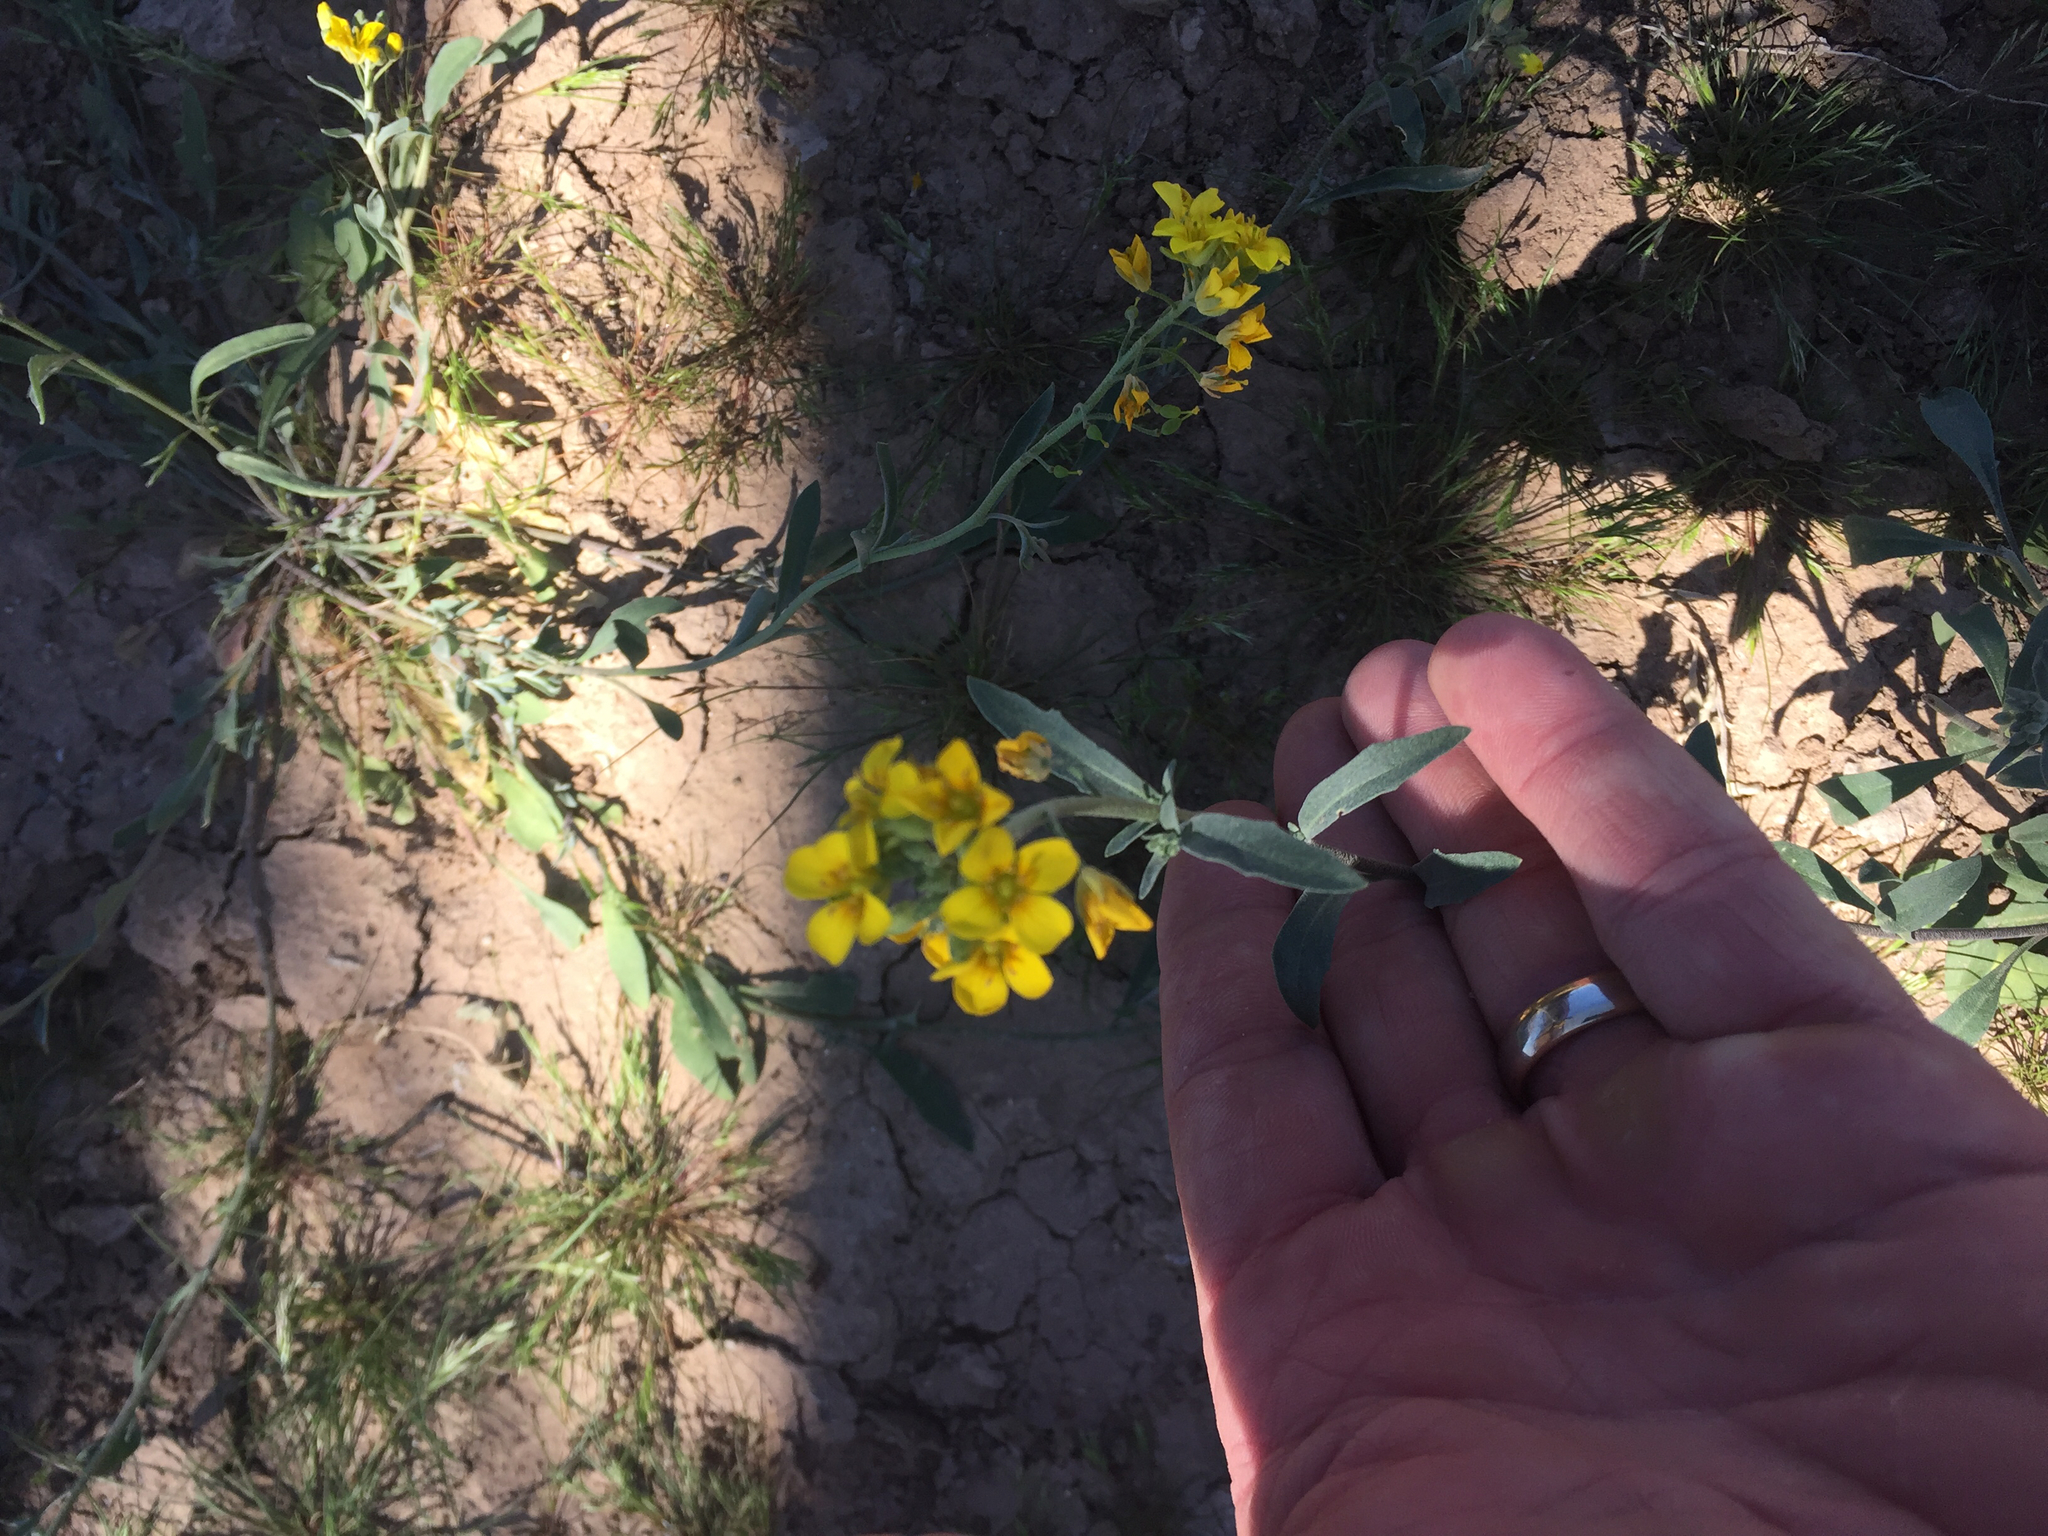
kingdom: Plantae
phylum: Tracheophyta
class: Magnoliopsida
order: Brassicales
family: Brassicaceae
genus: Physaria
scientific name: Physaria gordonii
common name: Gordon's bladderpod
